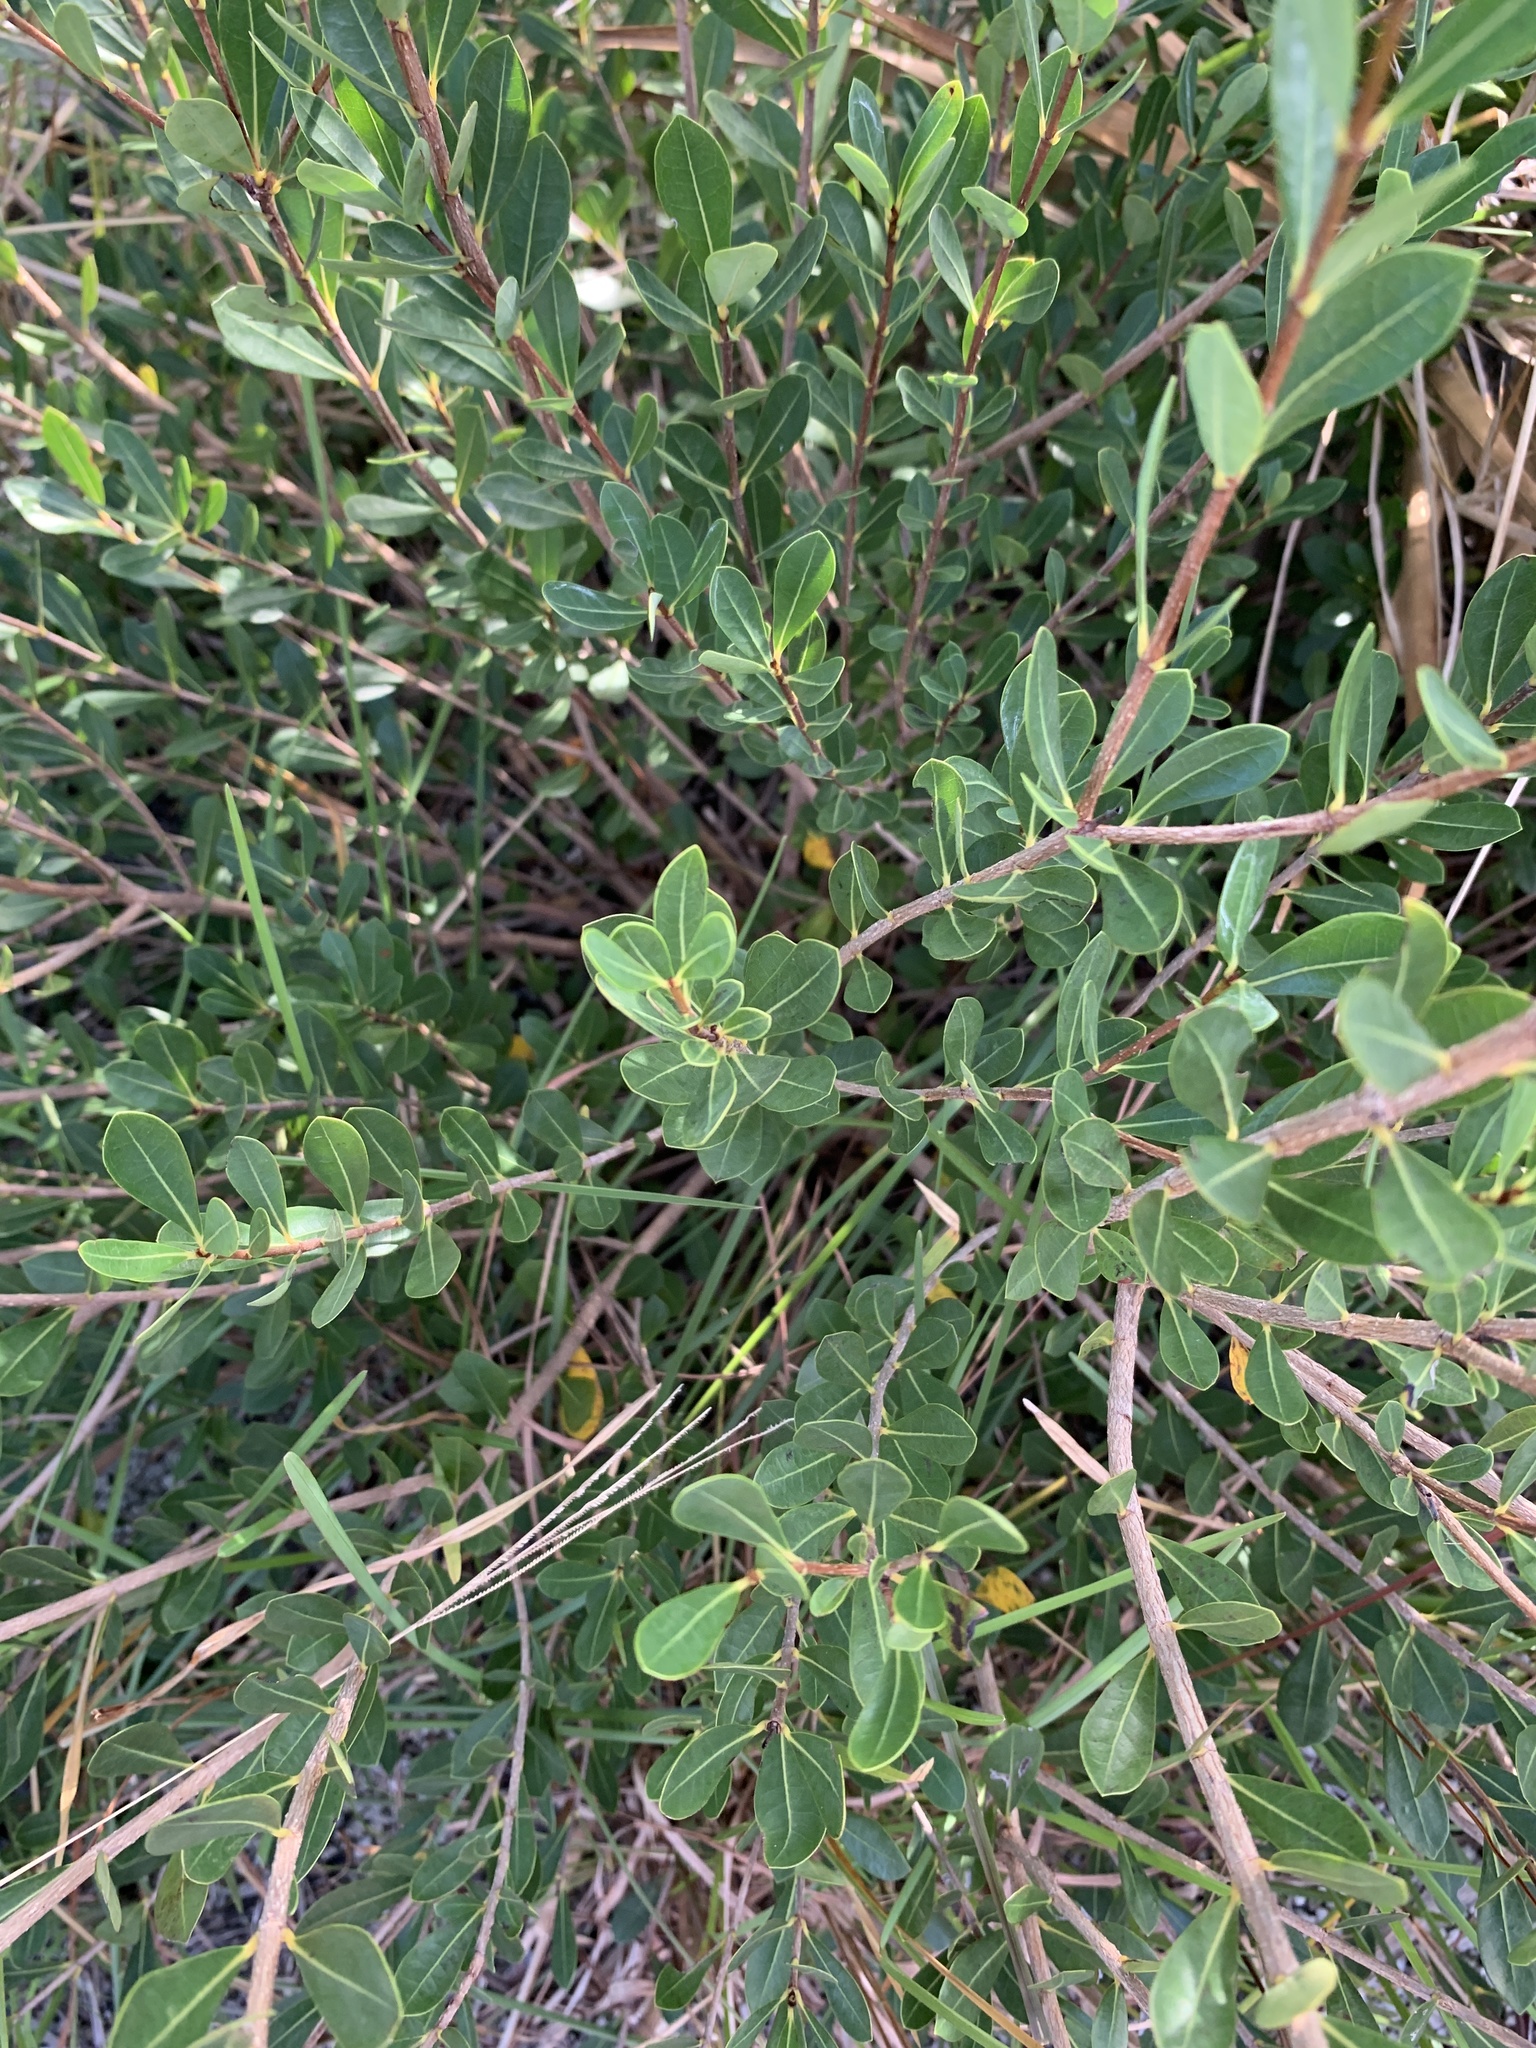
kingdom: Plantae
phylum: Tracheophyta
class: Magnoliopsida
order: Malpighiales
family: Malpighiaceae
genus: Byrsonima
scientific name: Byrsonima lucida
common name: Clam-cherry
